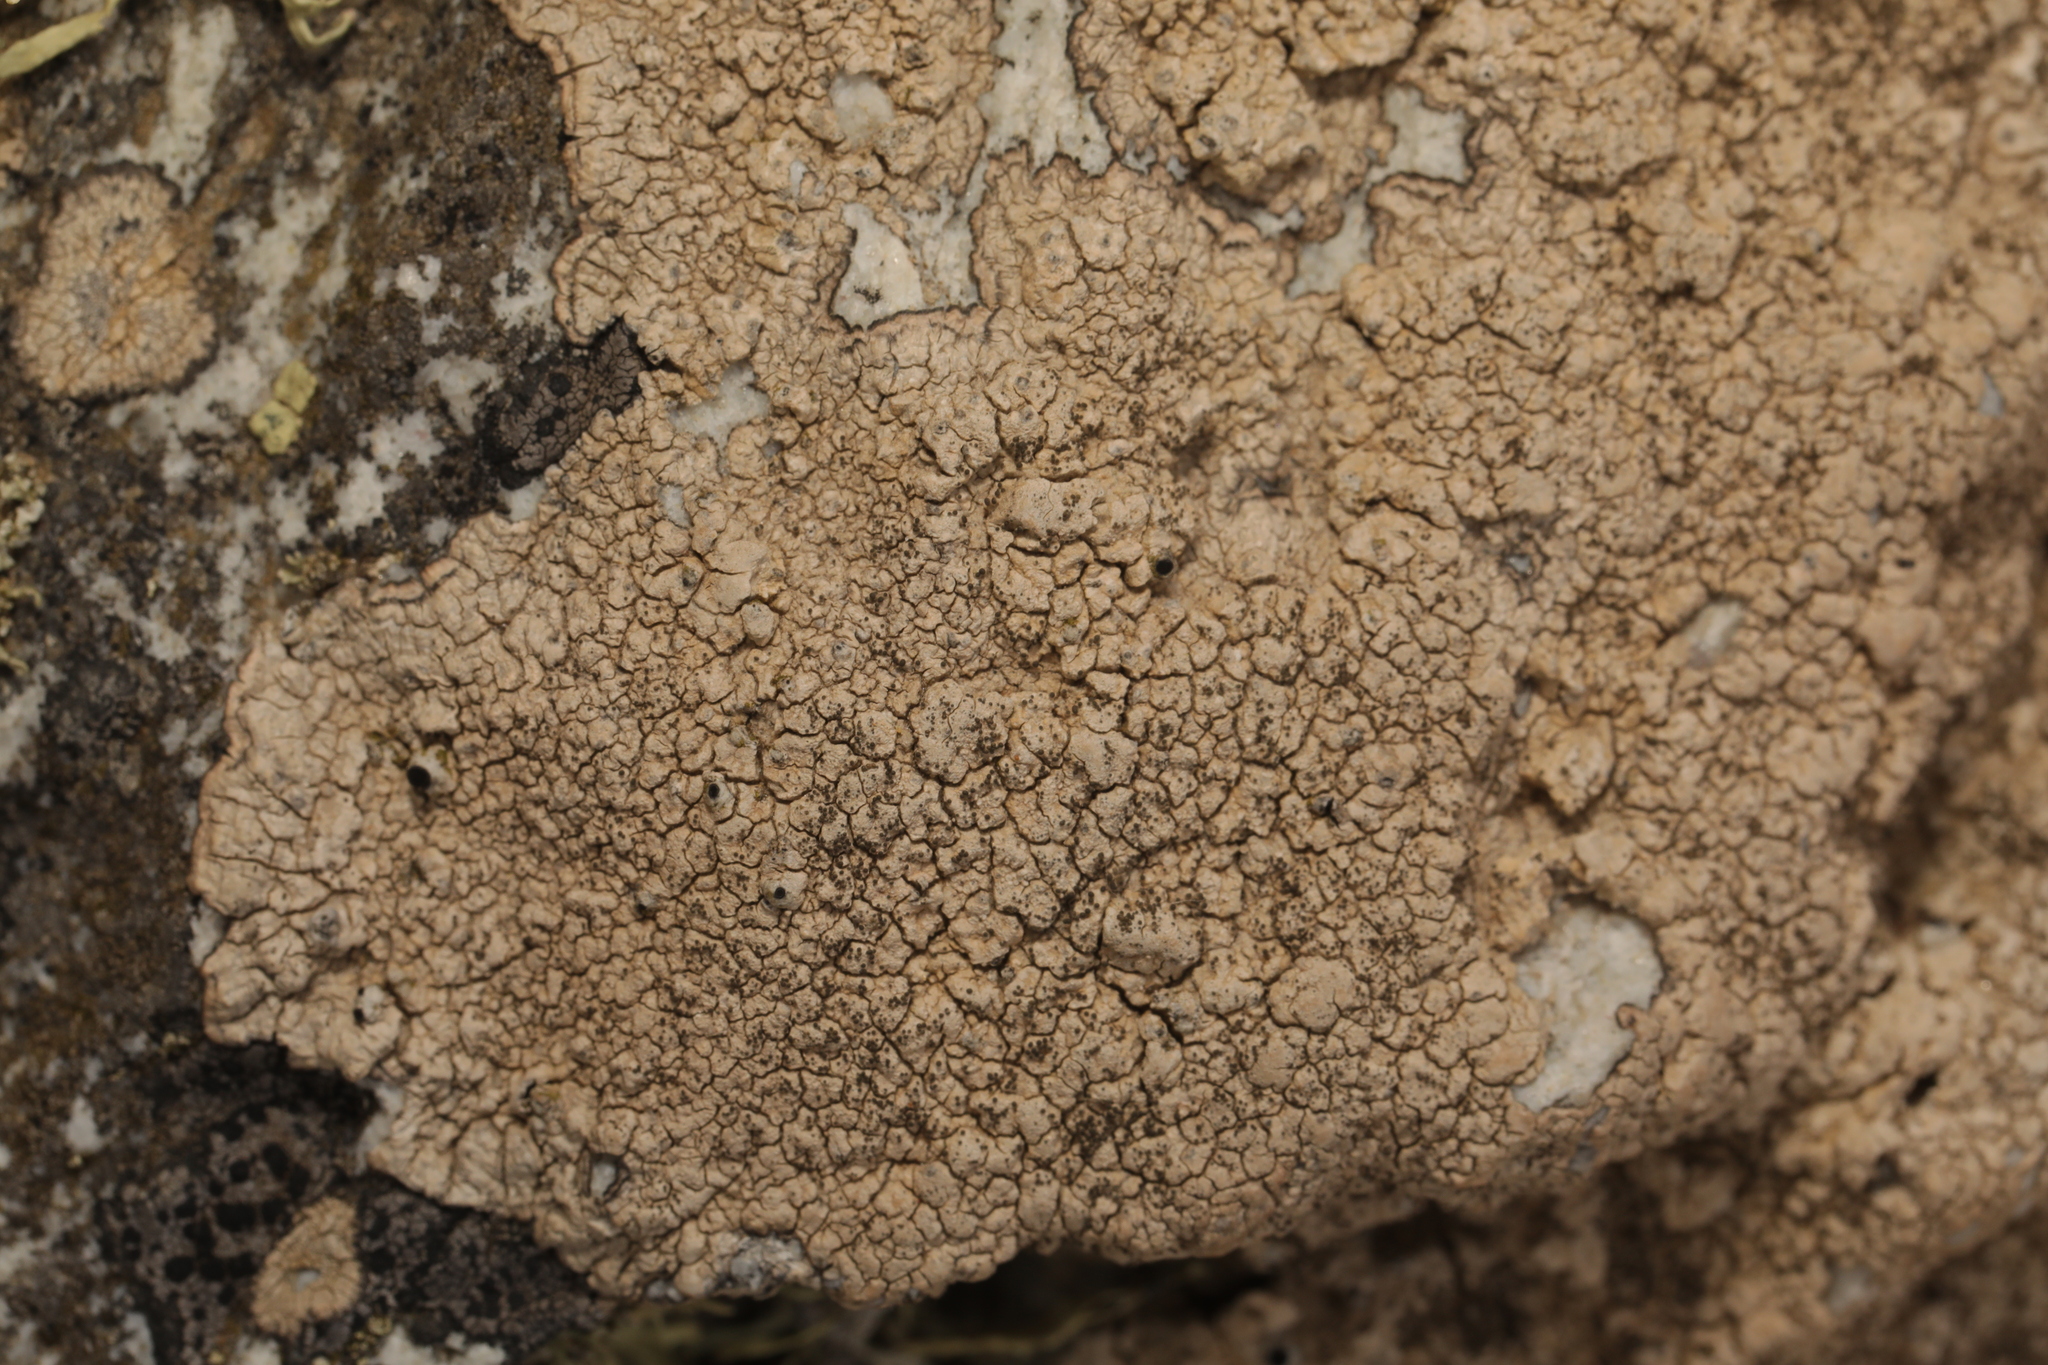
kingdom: Fungi
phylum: Ascomycota
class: Lecanoromycetes
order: Pertusariales
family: Pertusariaceae
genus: Pertusaria
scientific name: Pertusaria pseudocorallina
